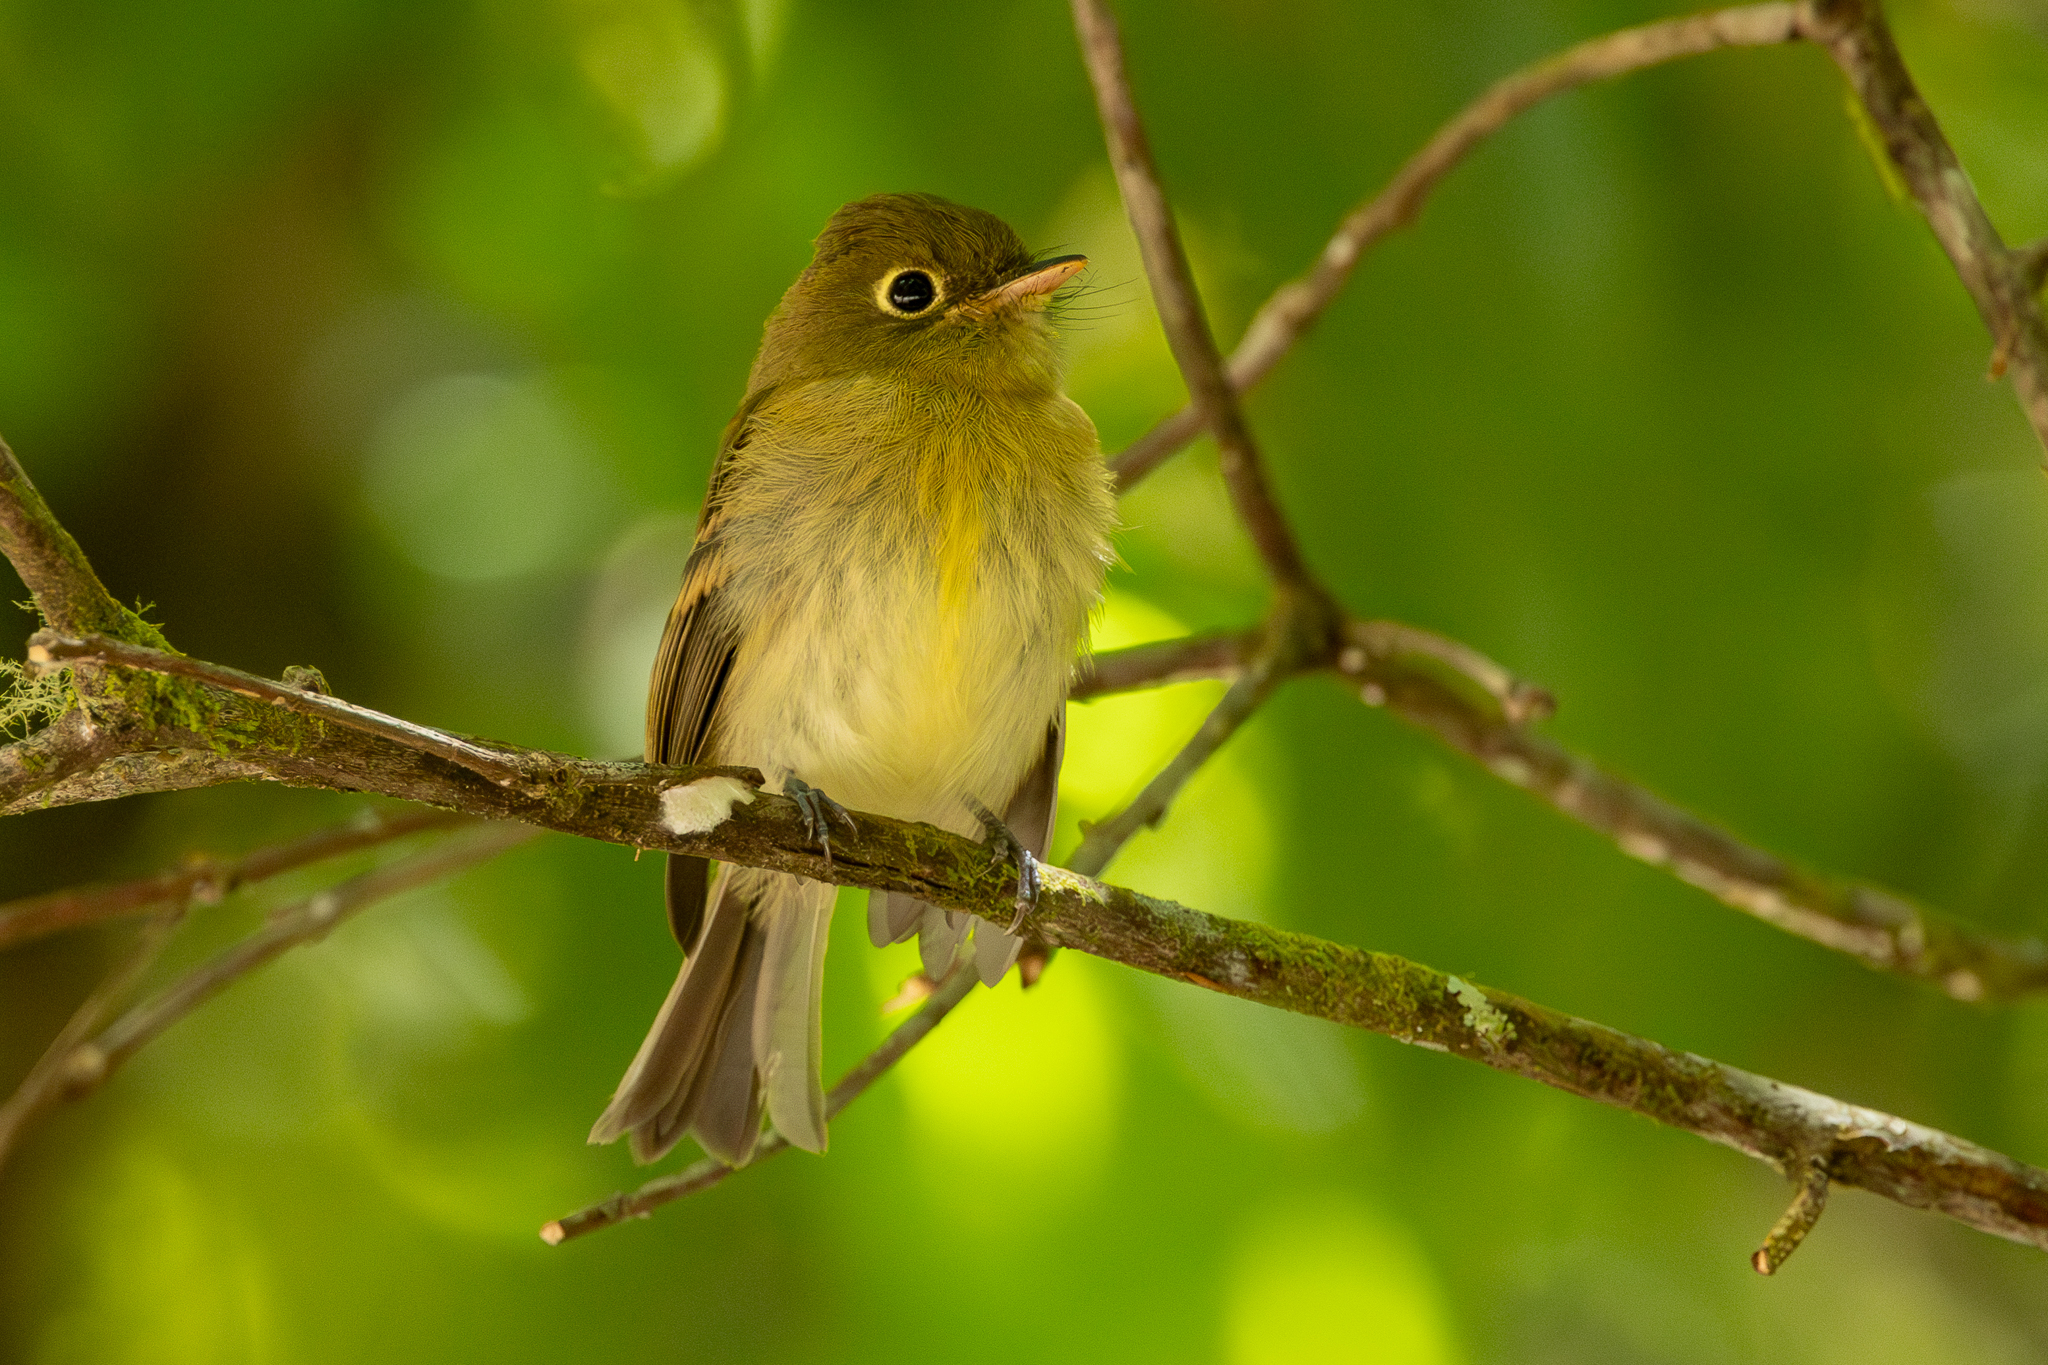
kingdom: Animalia
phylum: Chordata
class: Aves
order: Passeriformes
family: Tyrannidae
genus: Empidonax
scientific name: Empidonax flavescens
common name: Yellowish flycatcher
